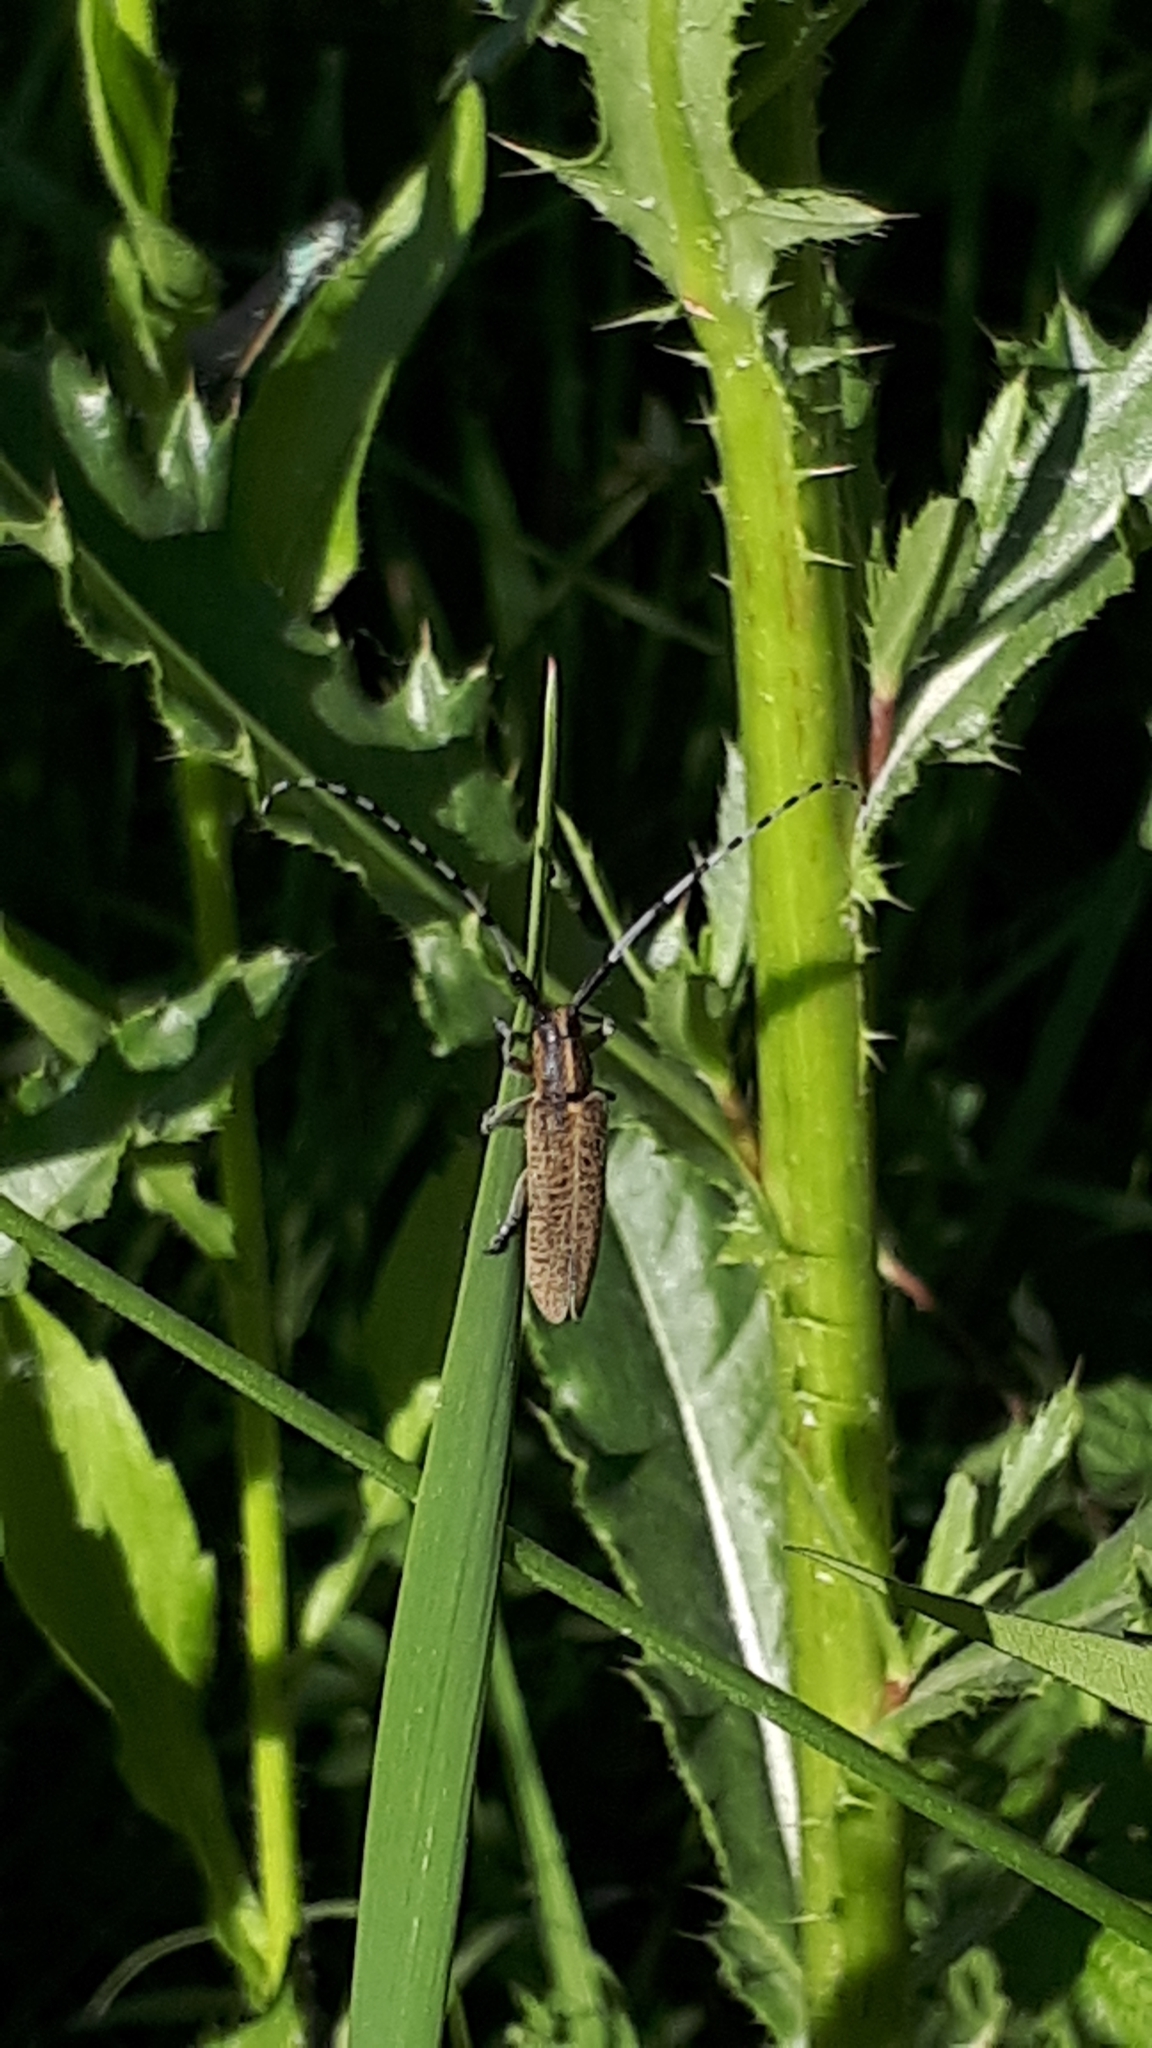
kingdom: Animalia
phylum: Arthropoda
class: Insecta
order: Coleoptera
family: Cerambycidae
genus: Agapanthia
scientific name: Agapanthia villosoviridescens
